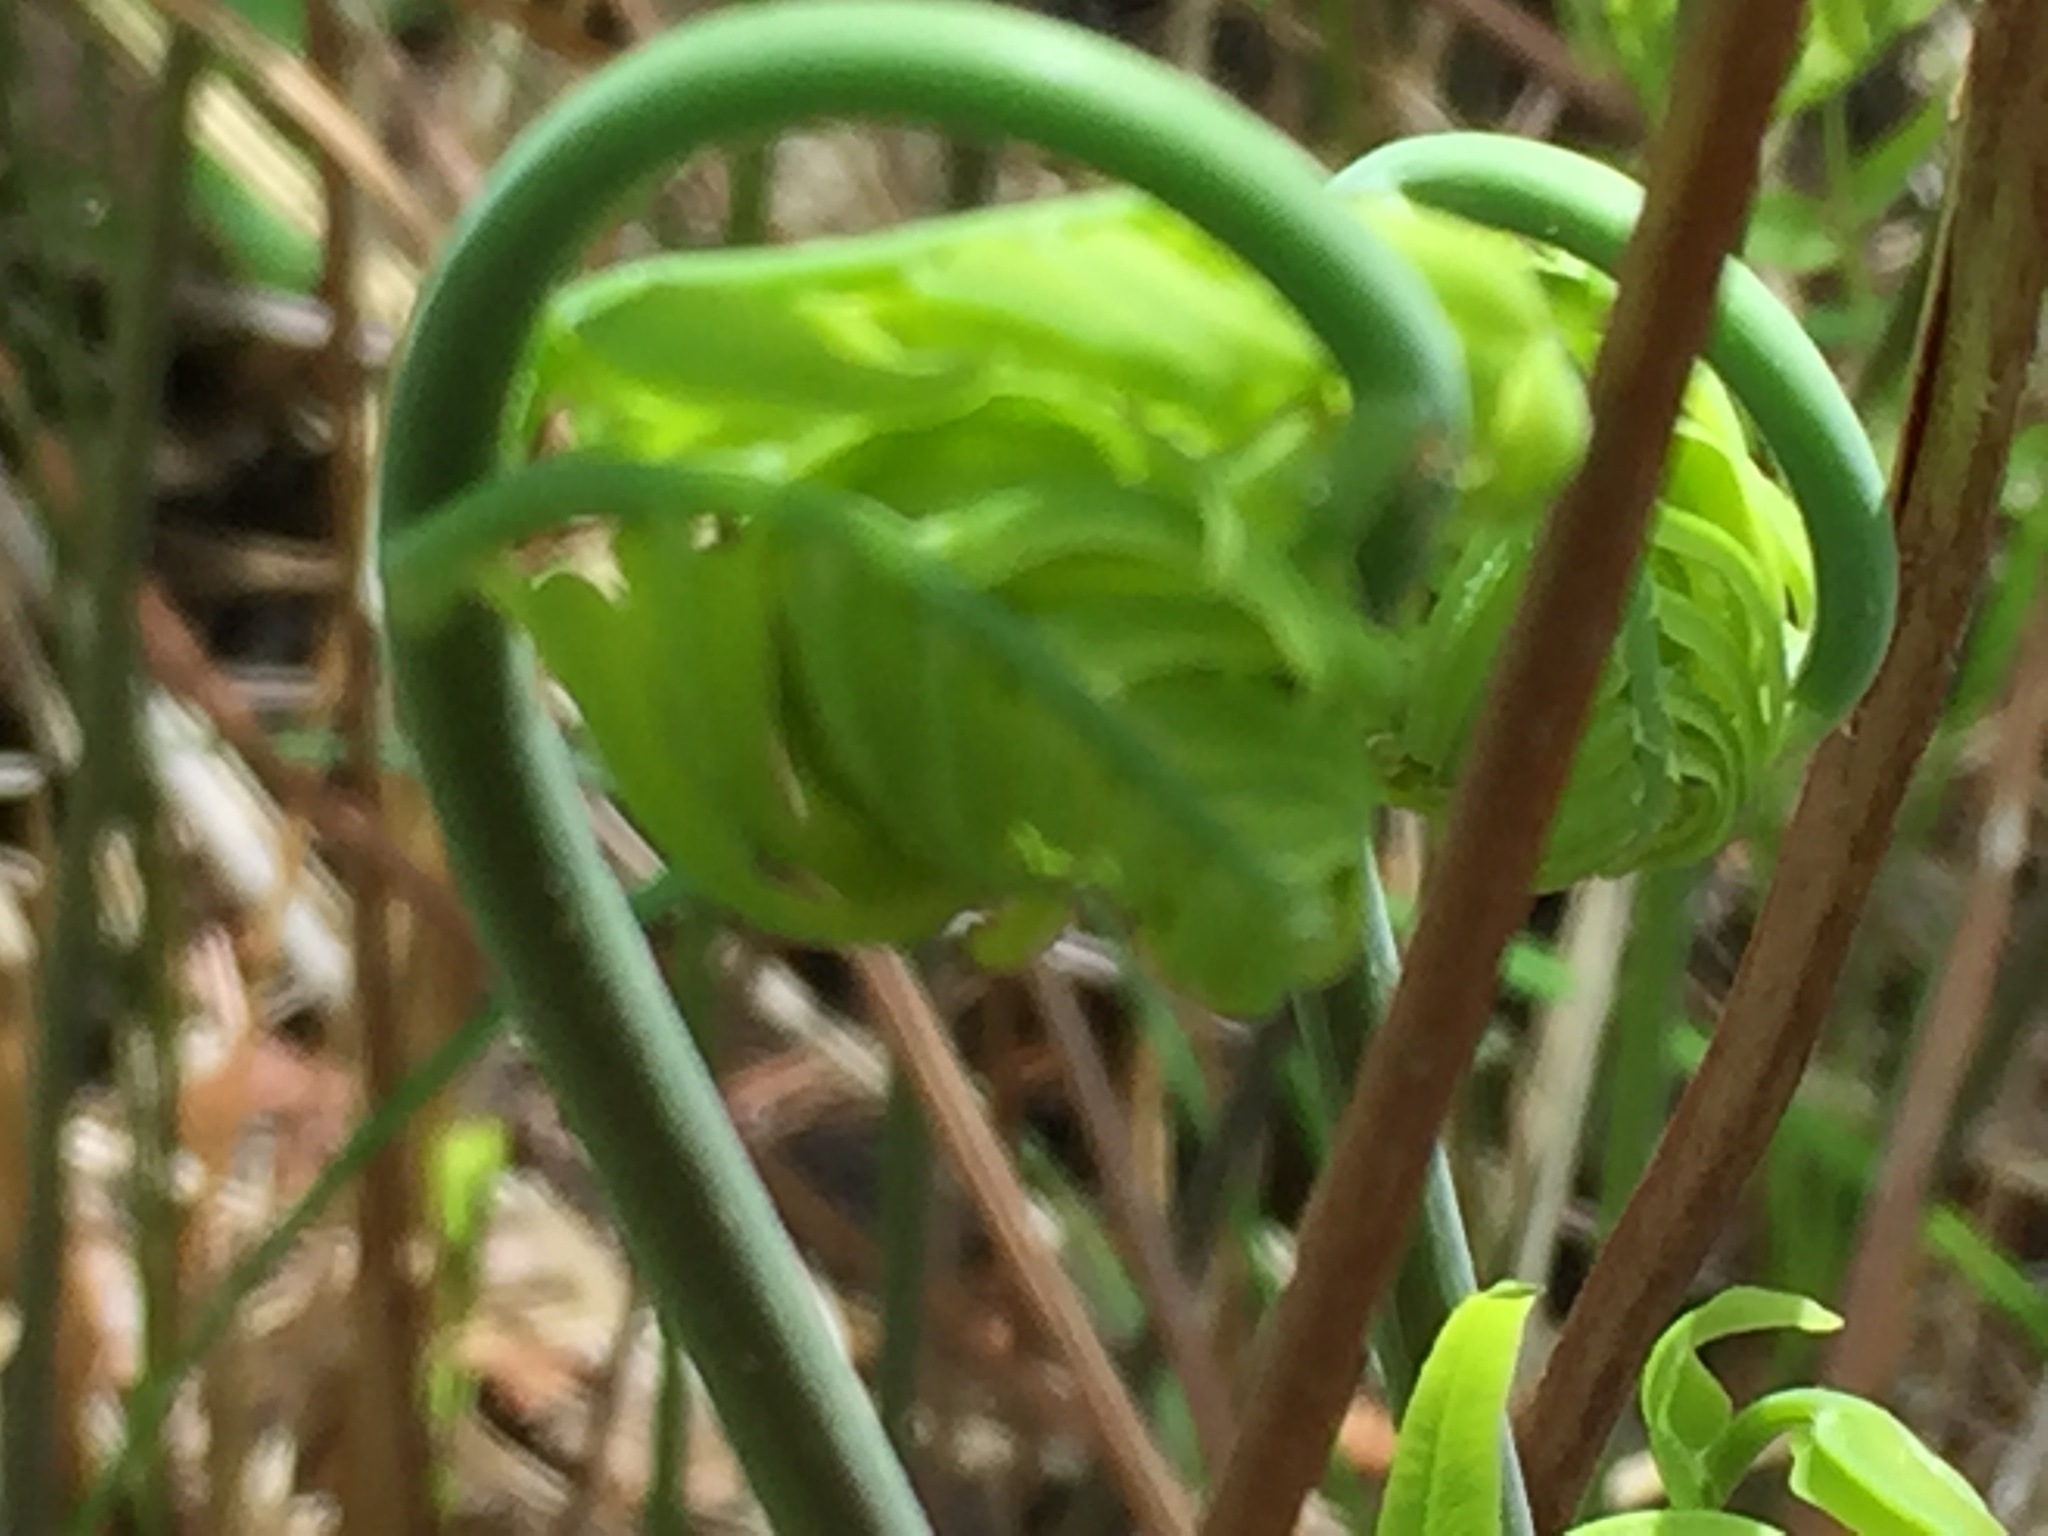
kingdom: Plantae
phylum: Tracheophyta
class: Polypodiopsida
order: Osmundales
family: Osmundaceae
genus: Osmunda
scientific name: Osmunda spectabilis
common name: American royal fern
